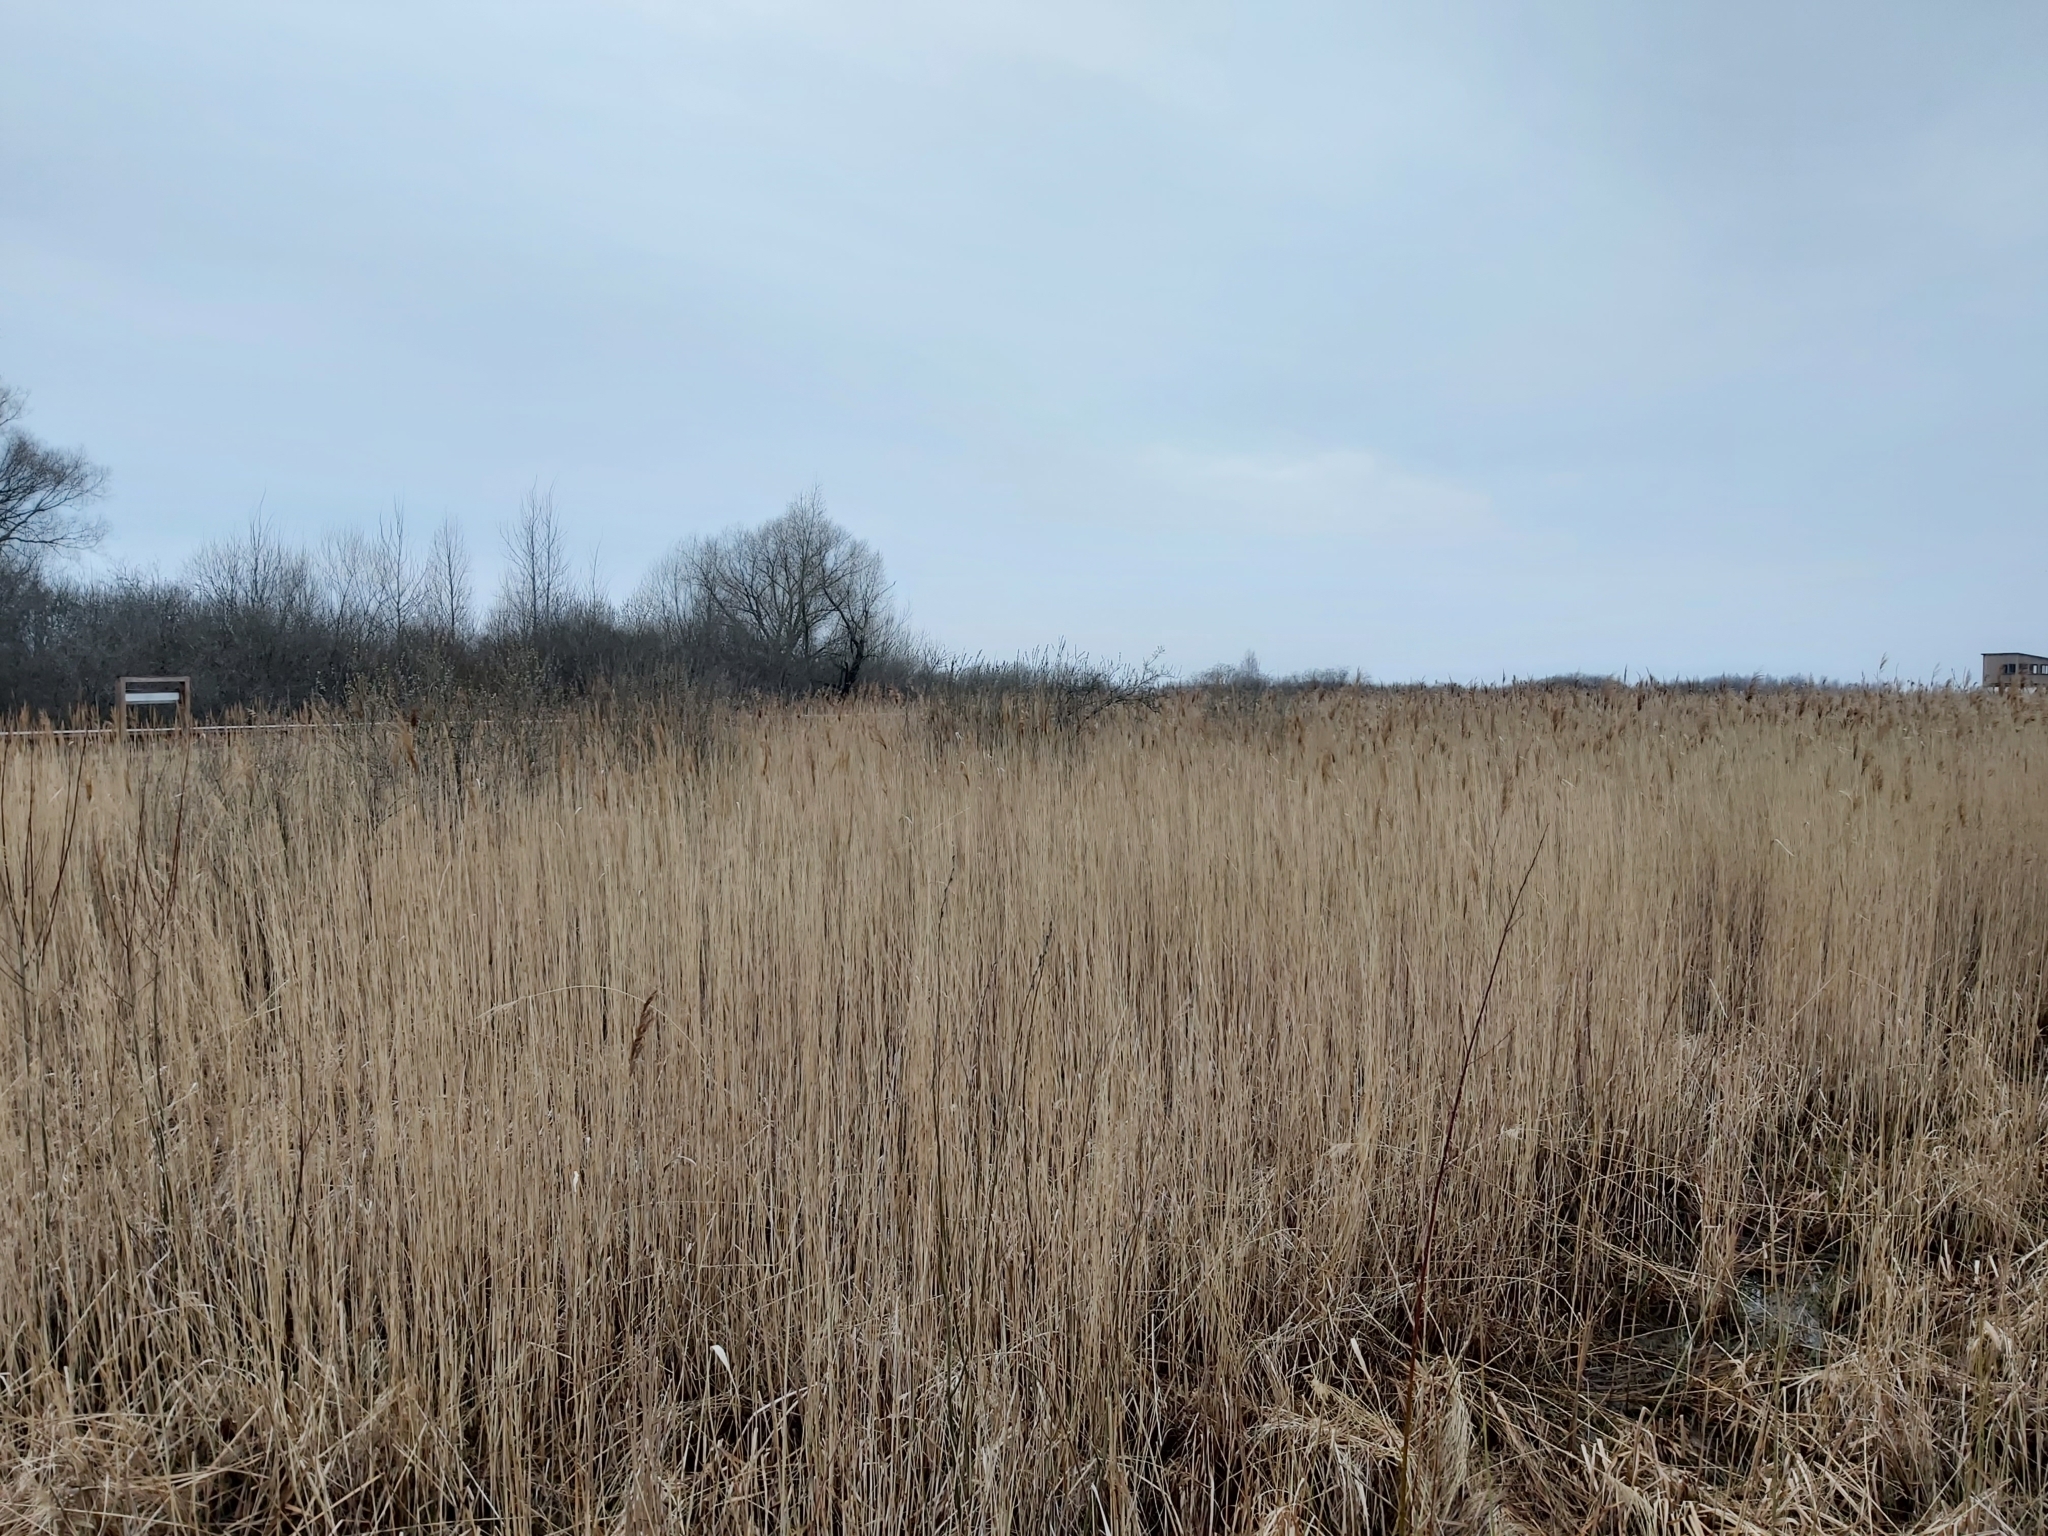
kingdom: Animalia
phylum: Chordata
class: Aves
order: Passeriformes
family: Emberizidae
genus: Emberiza
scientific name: Emberiza schoeniclus
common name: Reed bunting
